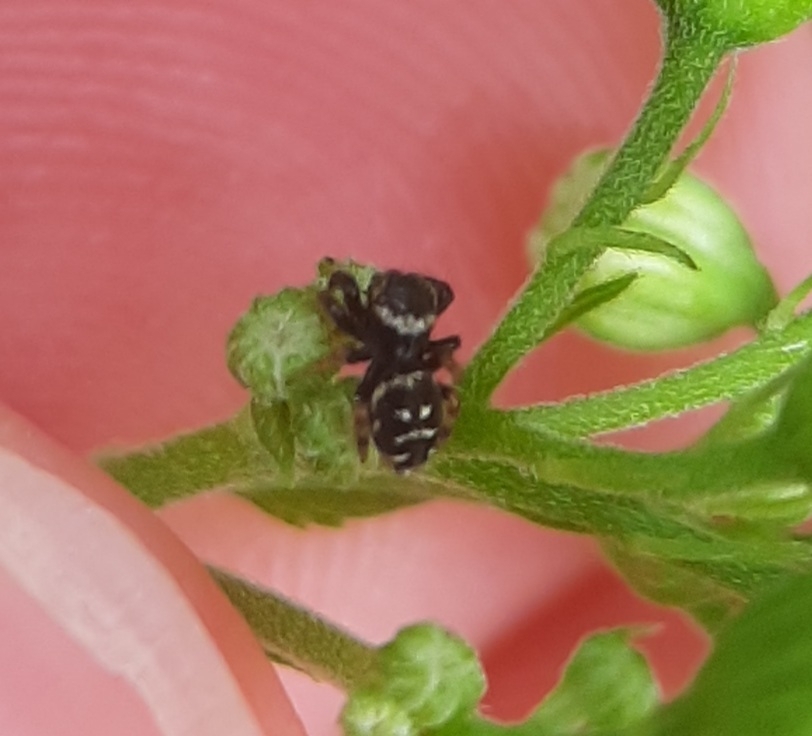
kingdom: Animalia
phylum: Arthropoda
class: Arachnida
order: Araneae
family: Salticidae
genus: Paraphidippus
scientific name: Paraphidippus aurantius
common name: Jumping spiders
